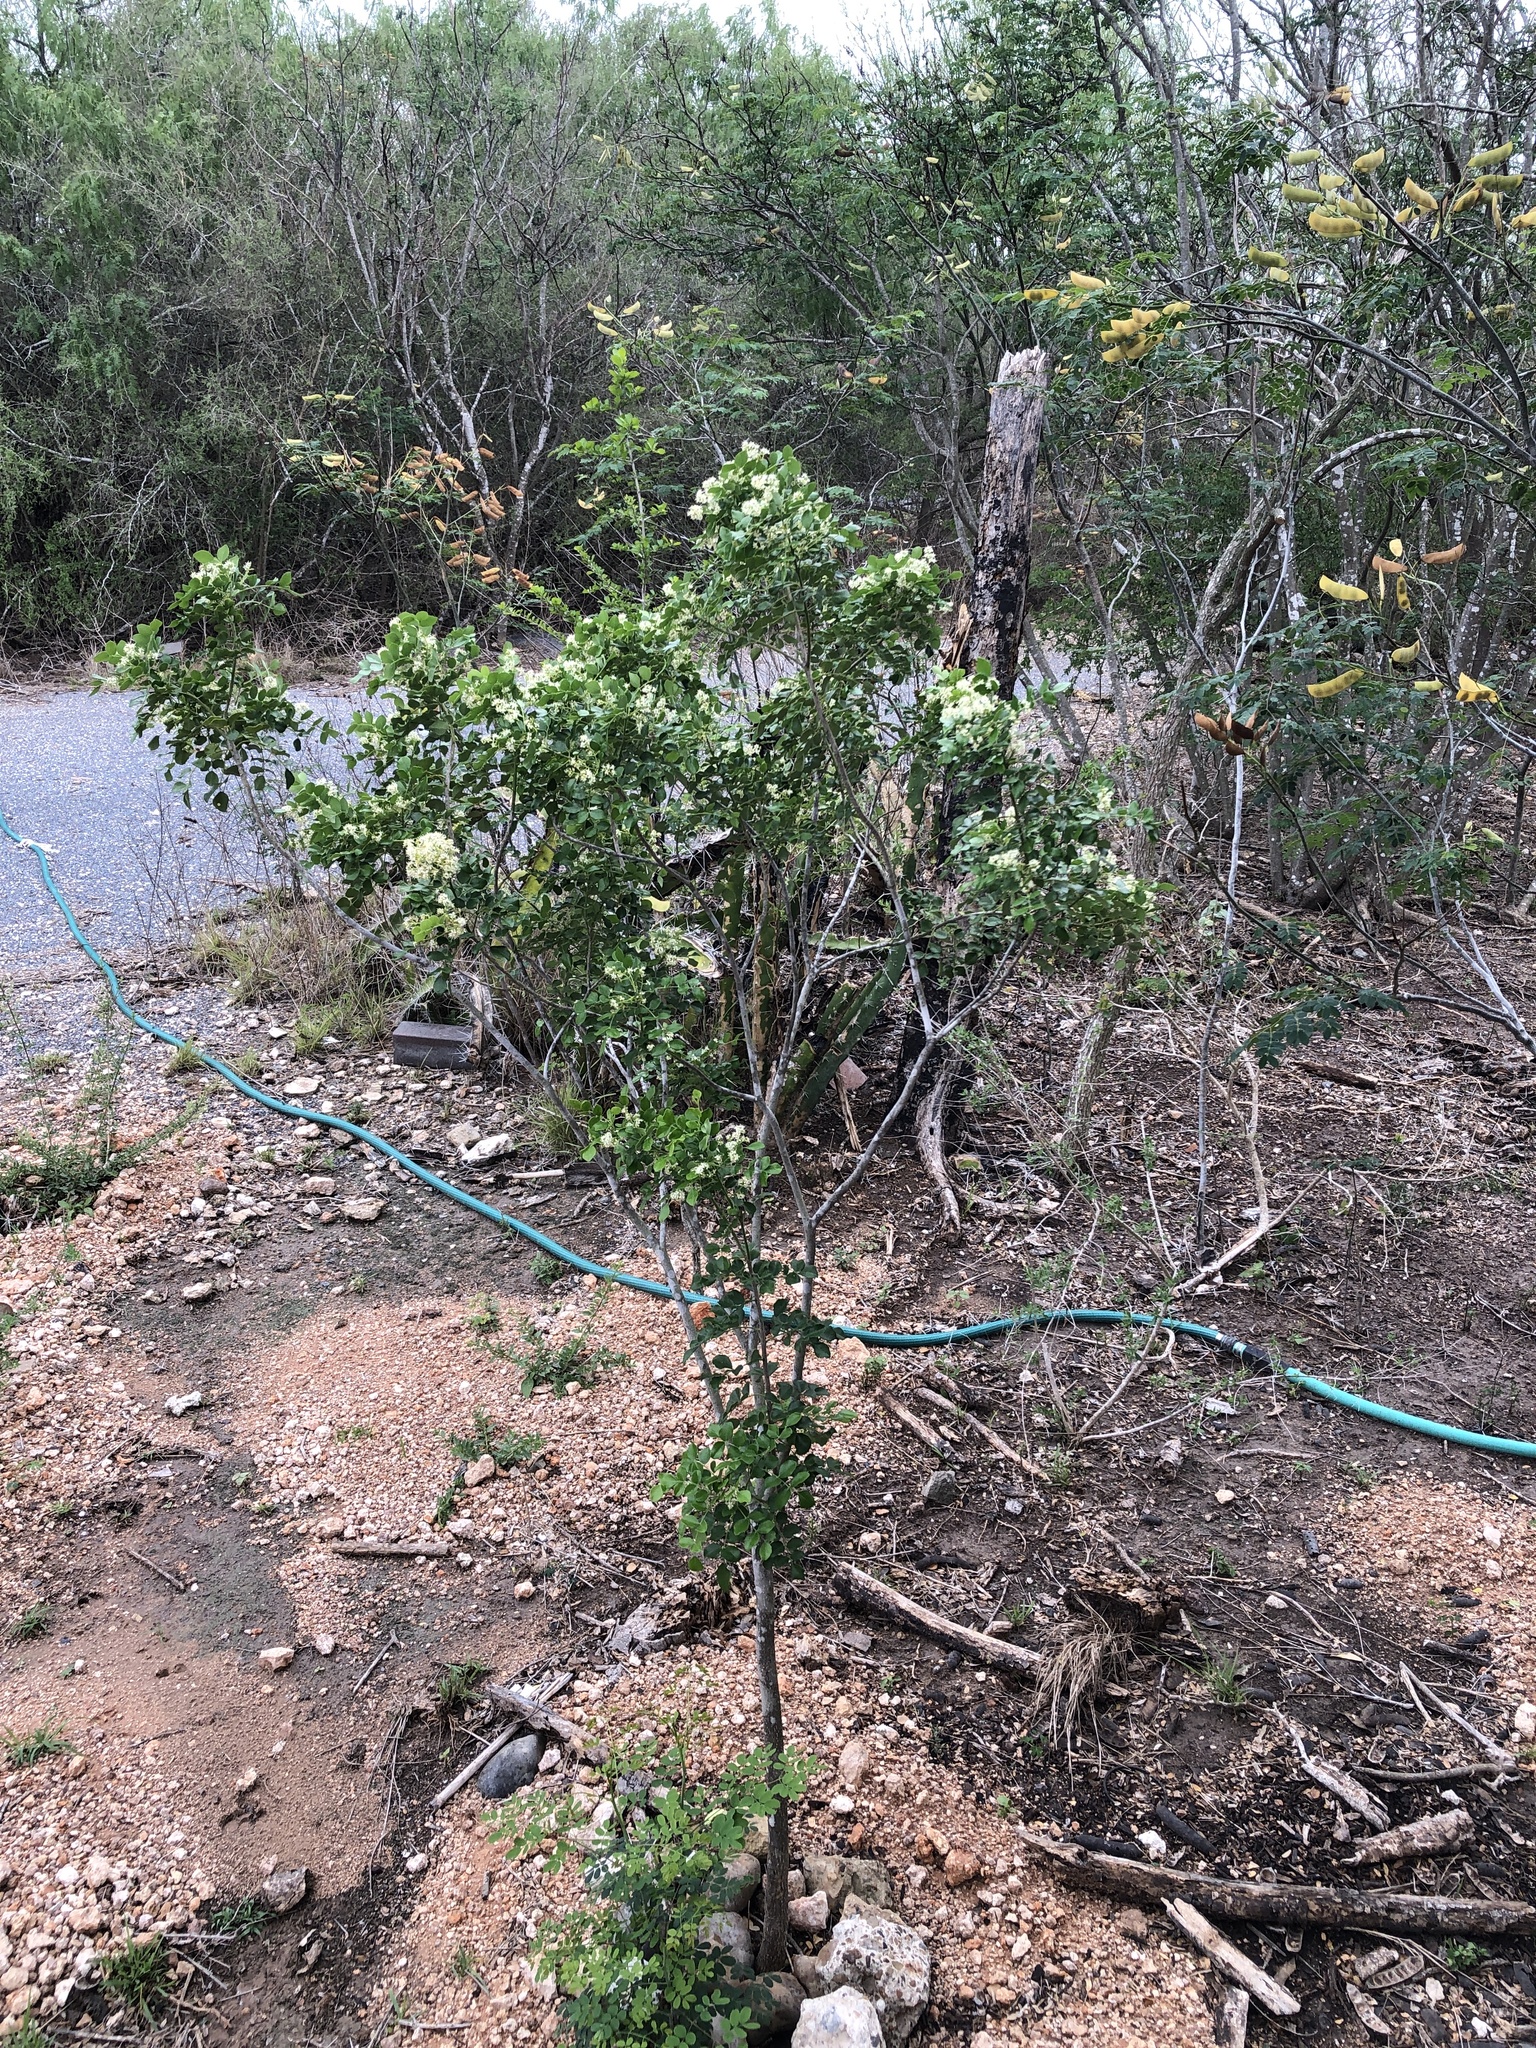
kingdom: Plantae
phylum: Tracheophyta
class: Magnoliopsida
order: Sapindales
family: Rutaceae
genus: Amyris
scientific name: Amyris madrensis
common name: Mountain torchwood
